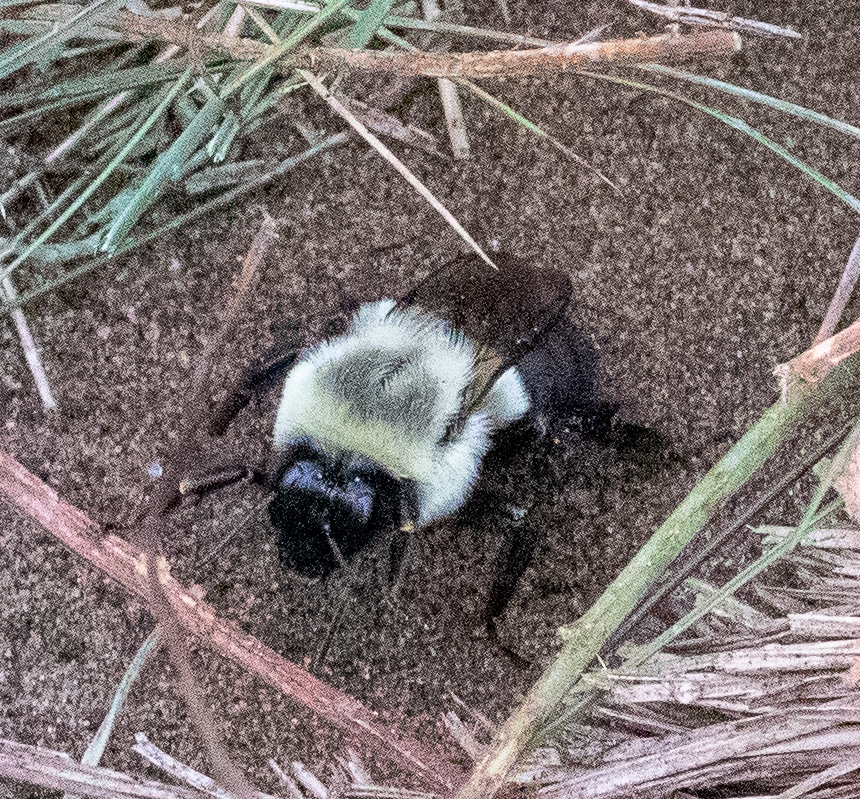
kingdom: Animalia
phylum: Arthropoda
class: Insecta
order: Hymenoptera
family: Apidae
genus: Bombus
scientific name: Bombus impatiens
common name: Common eastern bumble bee
